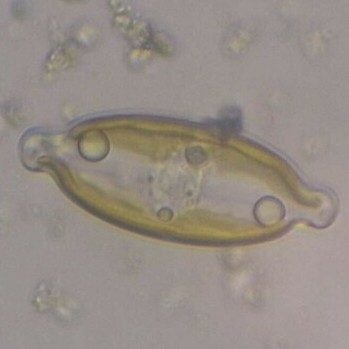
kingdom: Chromista
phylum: Ochrophyta
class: Bacillariophyceae
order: Naviculales
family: Naviculaceae
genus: Caloneis
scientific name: Caloneis amphisbaena
